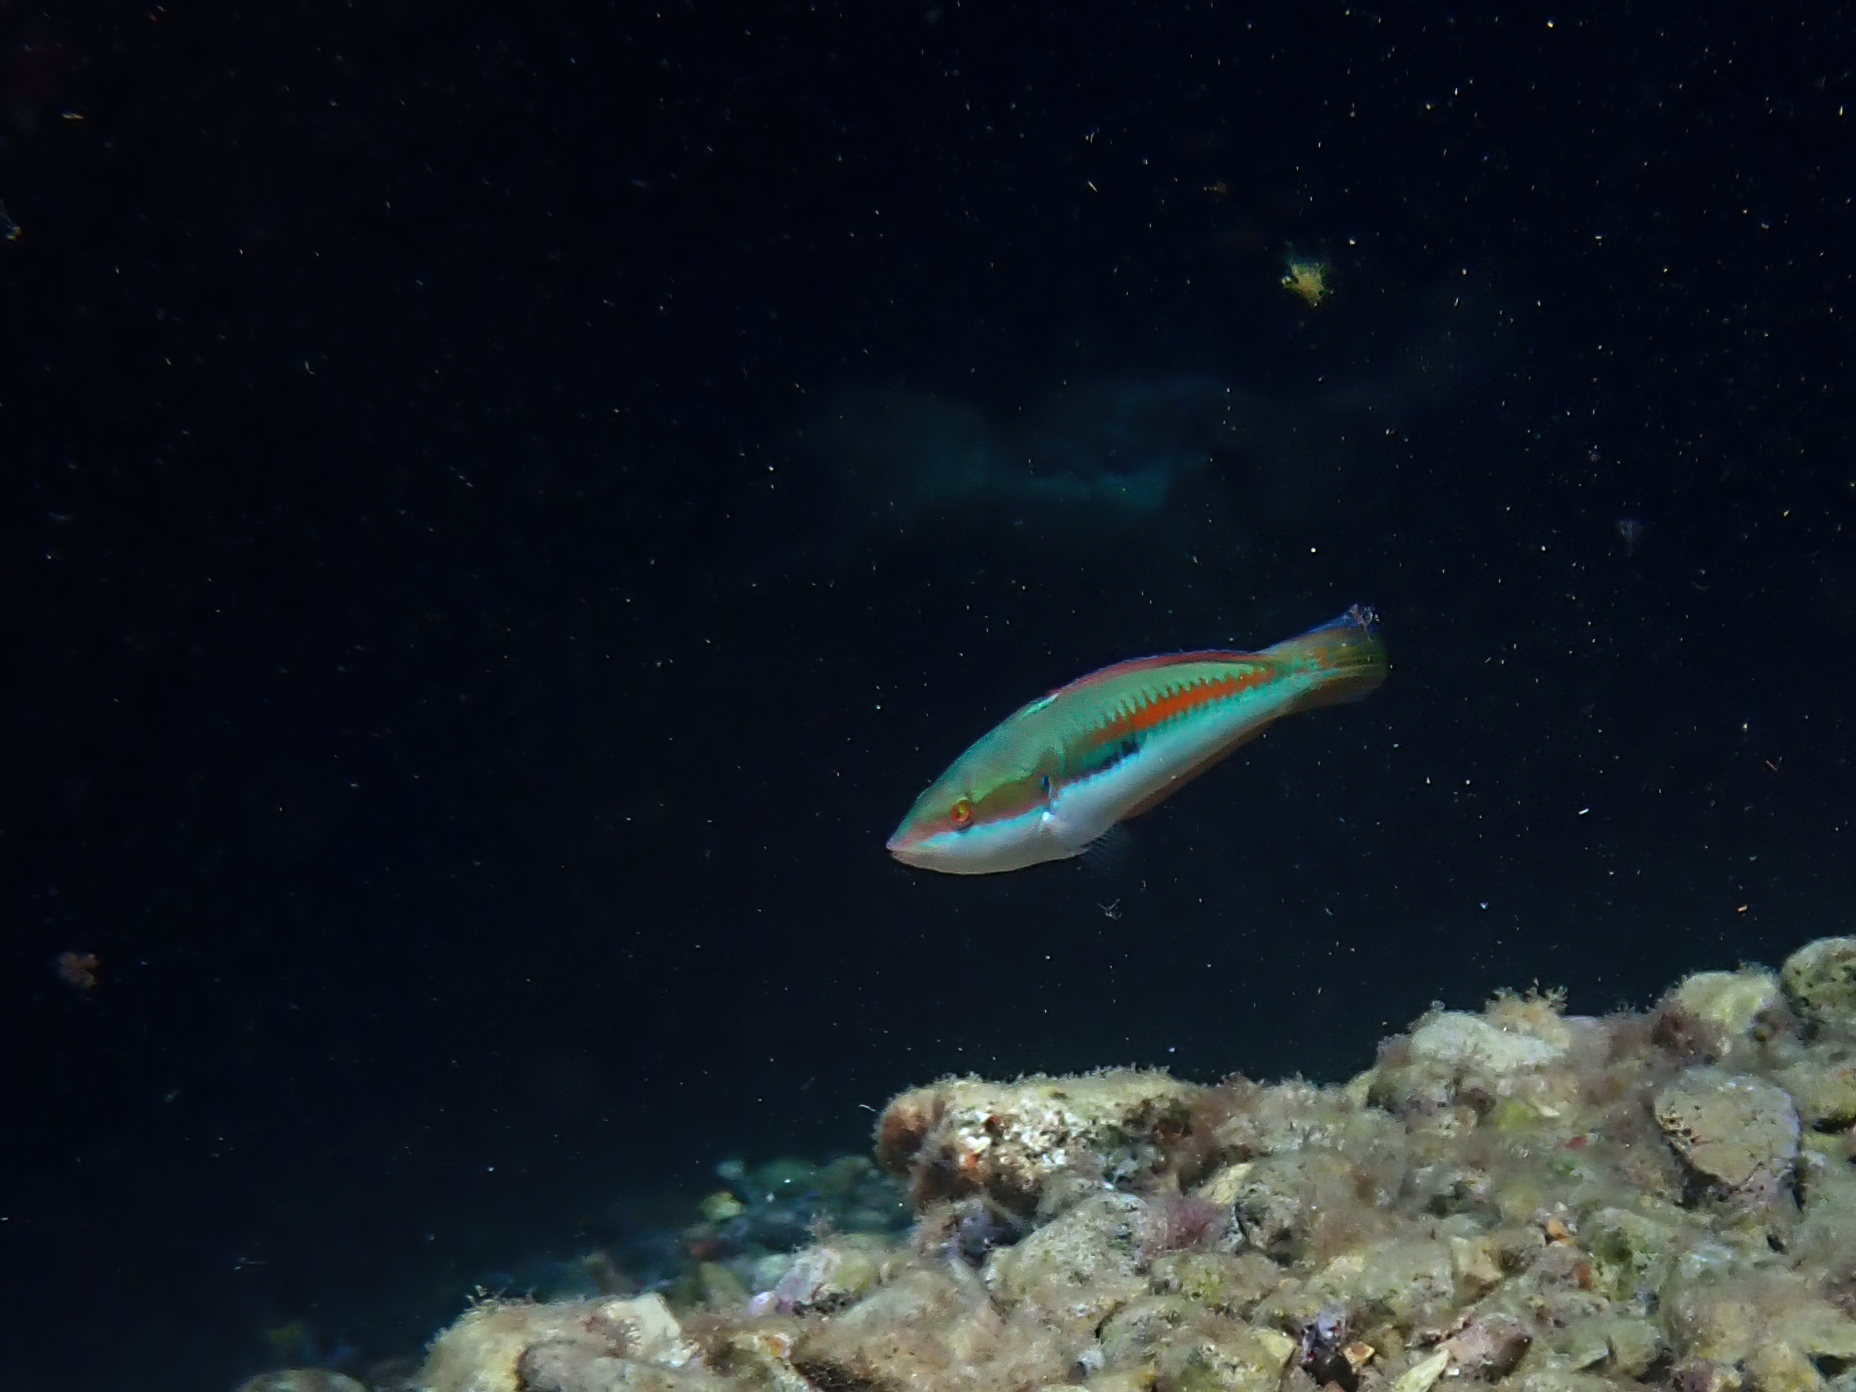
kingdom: Animalia
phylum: Chordata
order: Perciformes
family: Labridae
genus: Coris
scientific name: Coris julis
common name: Rainbow wrasse
